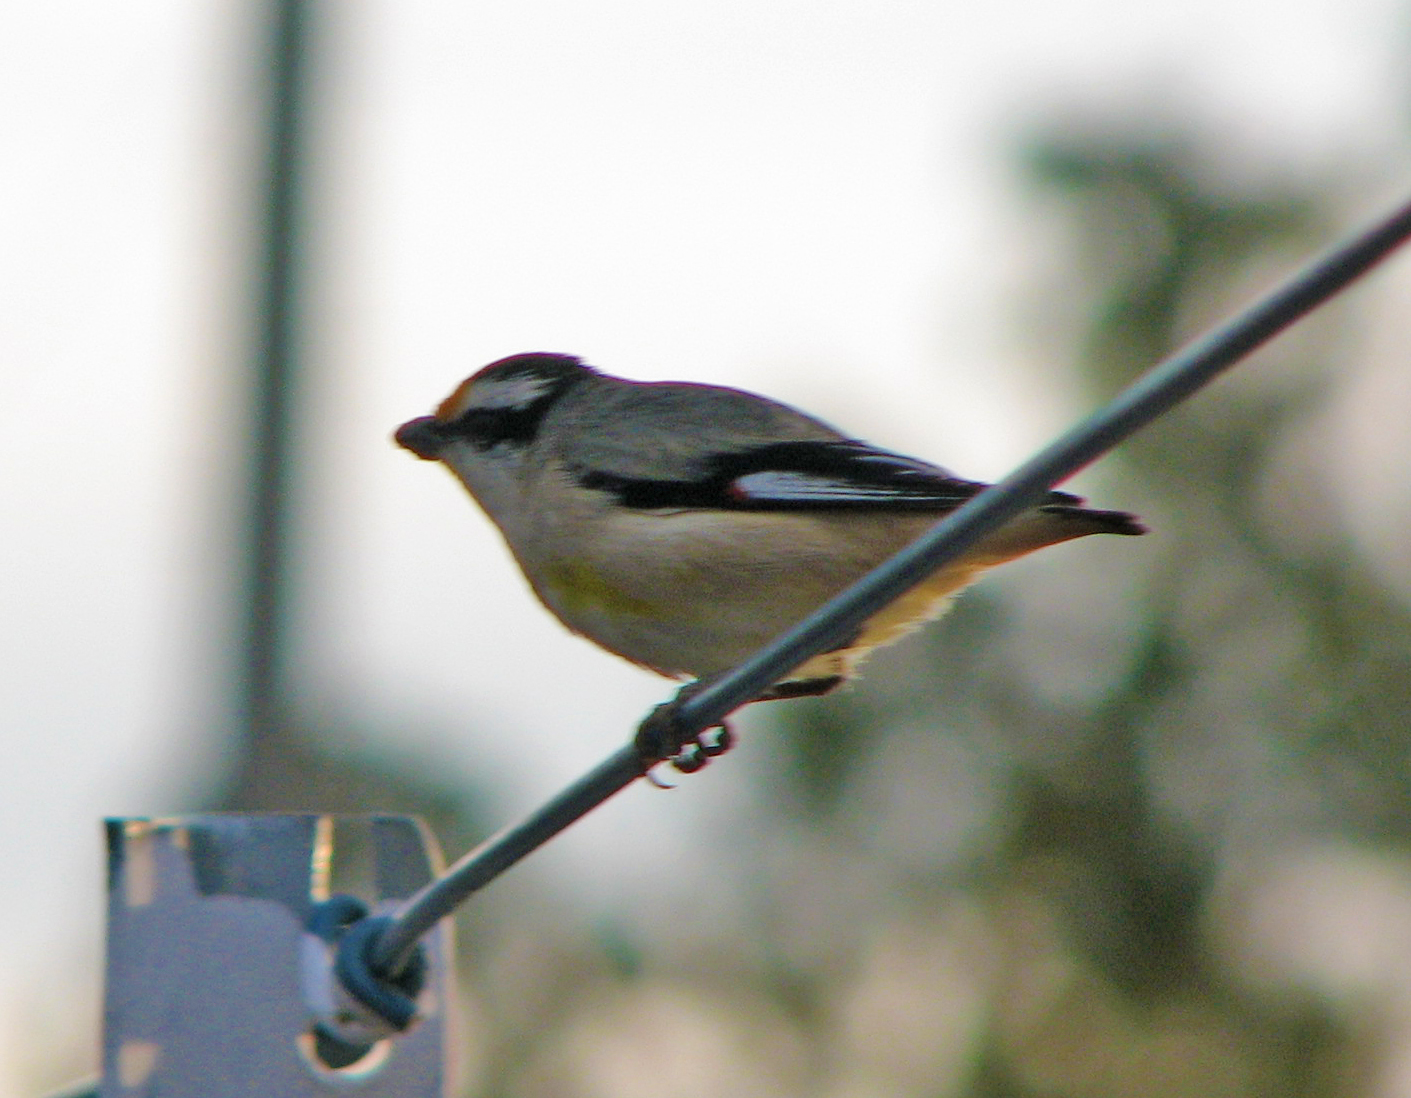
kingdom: Animalia
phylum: Chordata
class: Aves
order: Passeriformes
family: Pardalotidae
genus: Pardalotus
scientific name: Pardalotus striatus
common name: Striated pardalote
